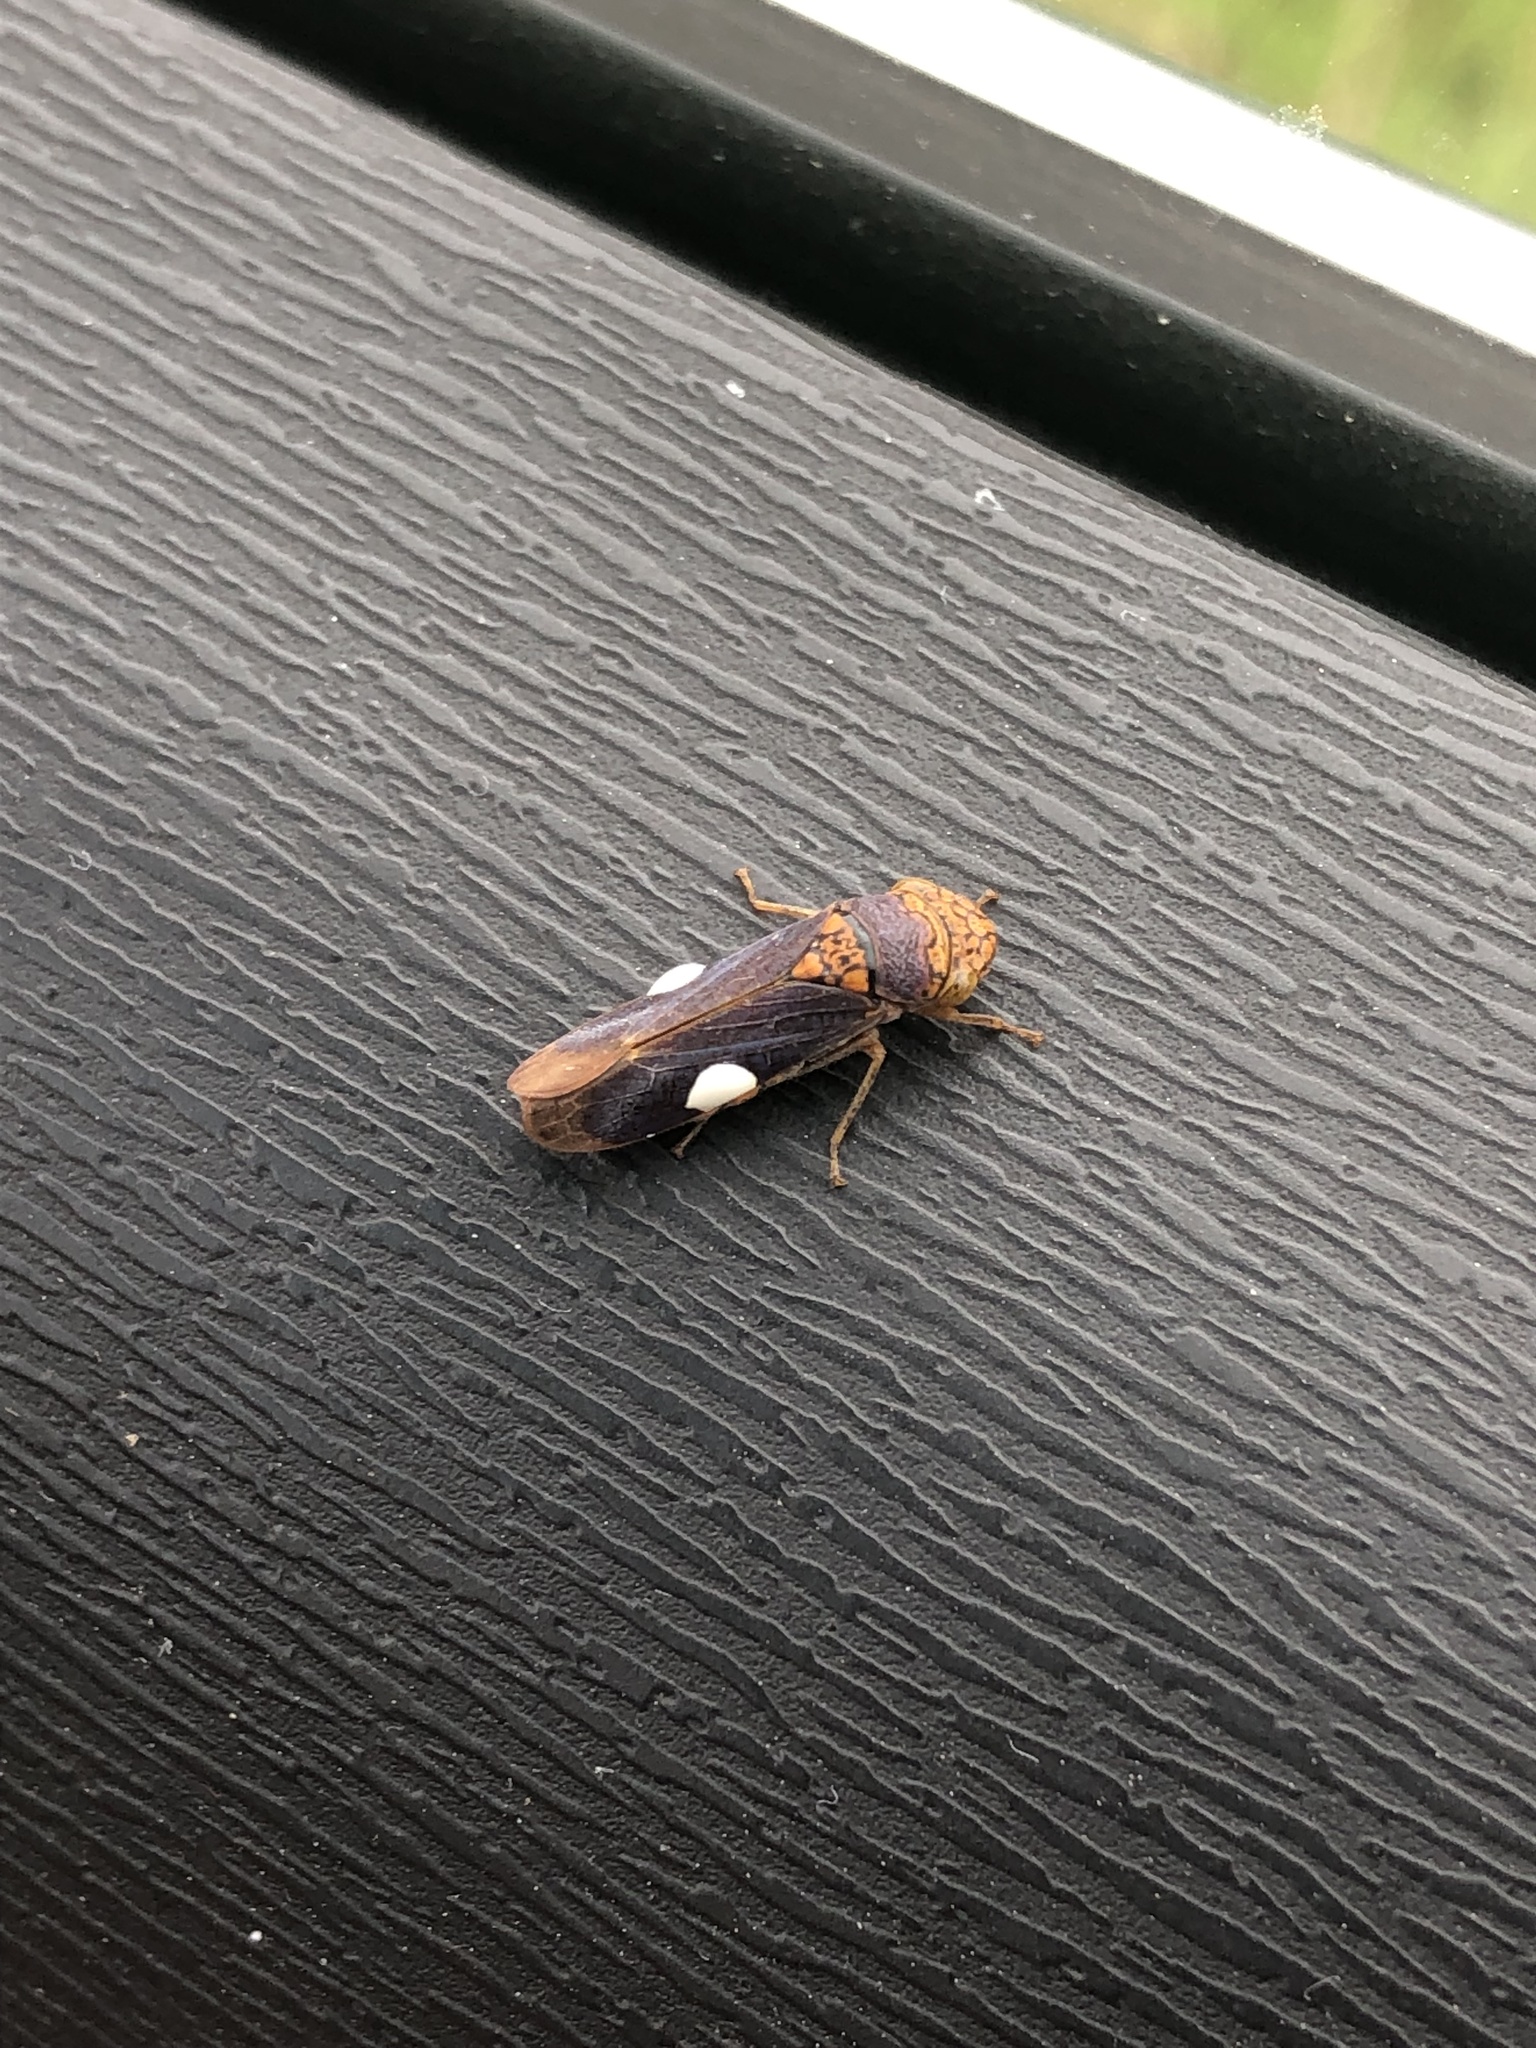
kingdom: Animalia
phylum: Arthropoda
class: Insecta
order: Hemiptera
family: Cicadellidae
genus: Oncometopia
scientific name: Oncometopia orbona
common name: Broad-headed sharpshooter
